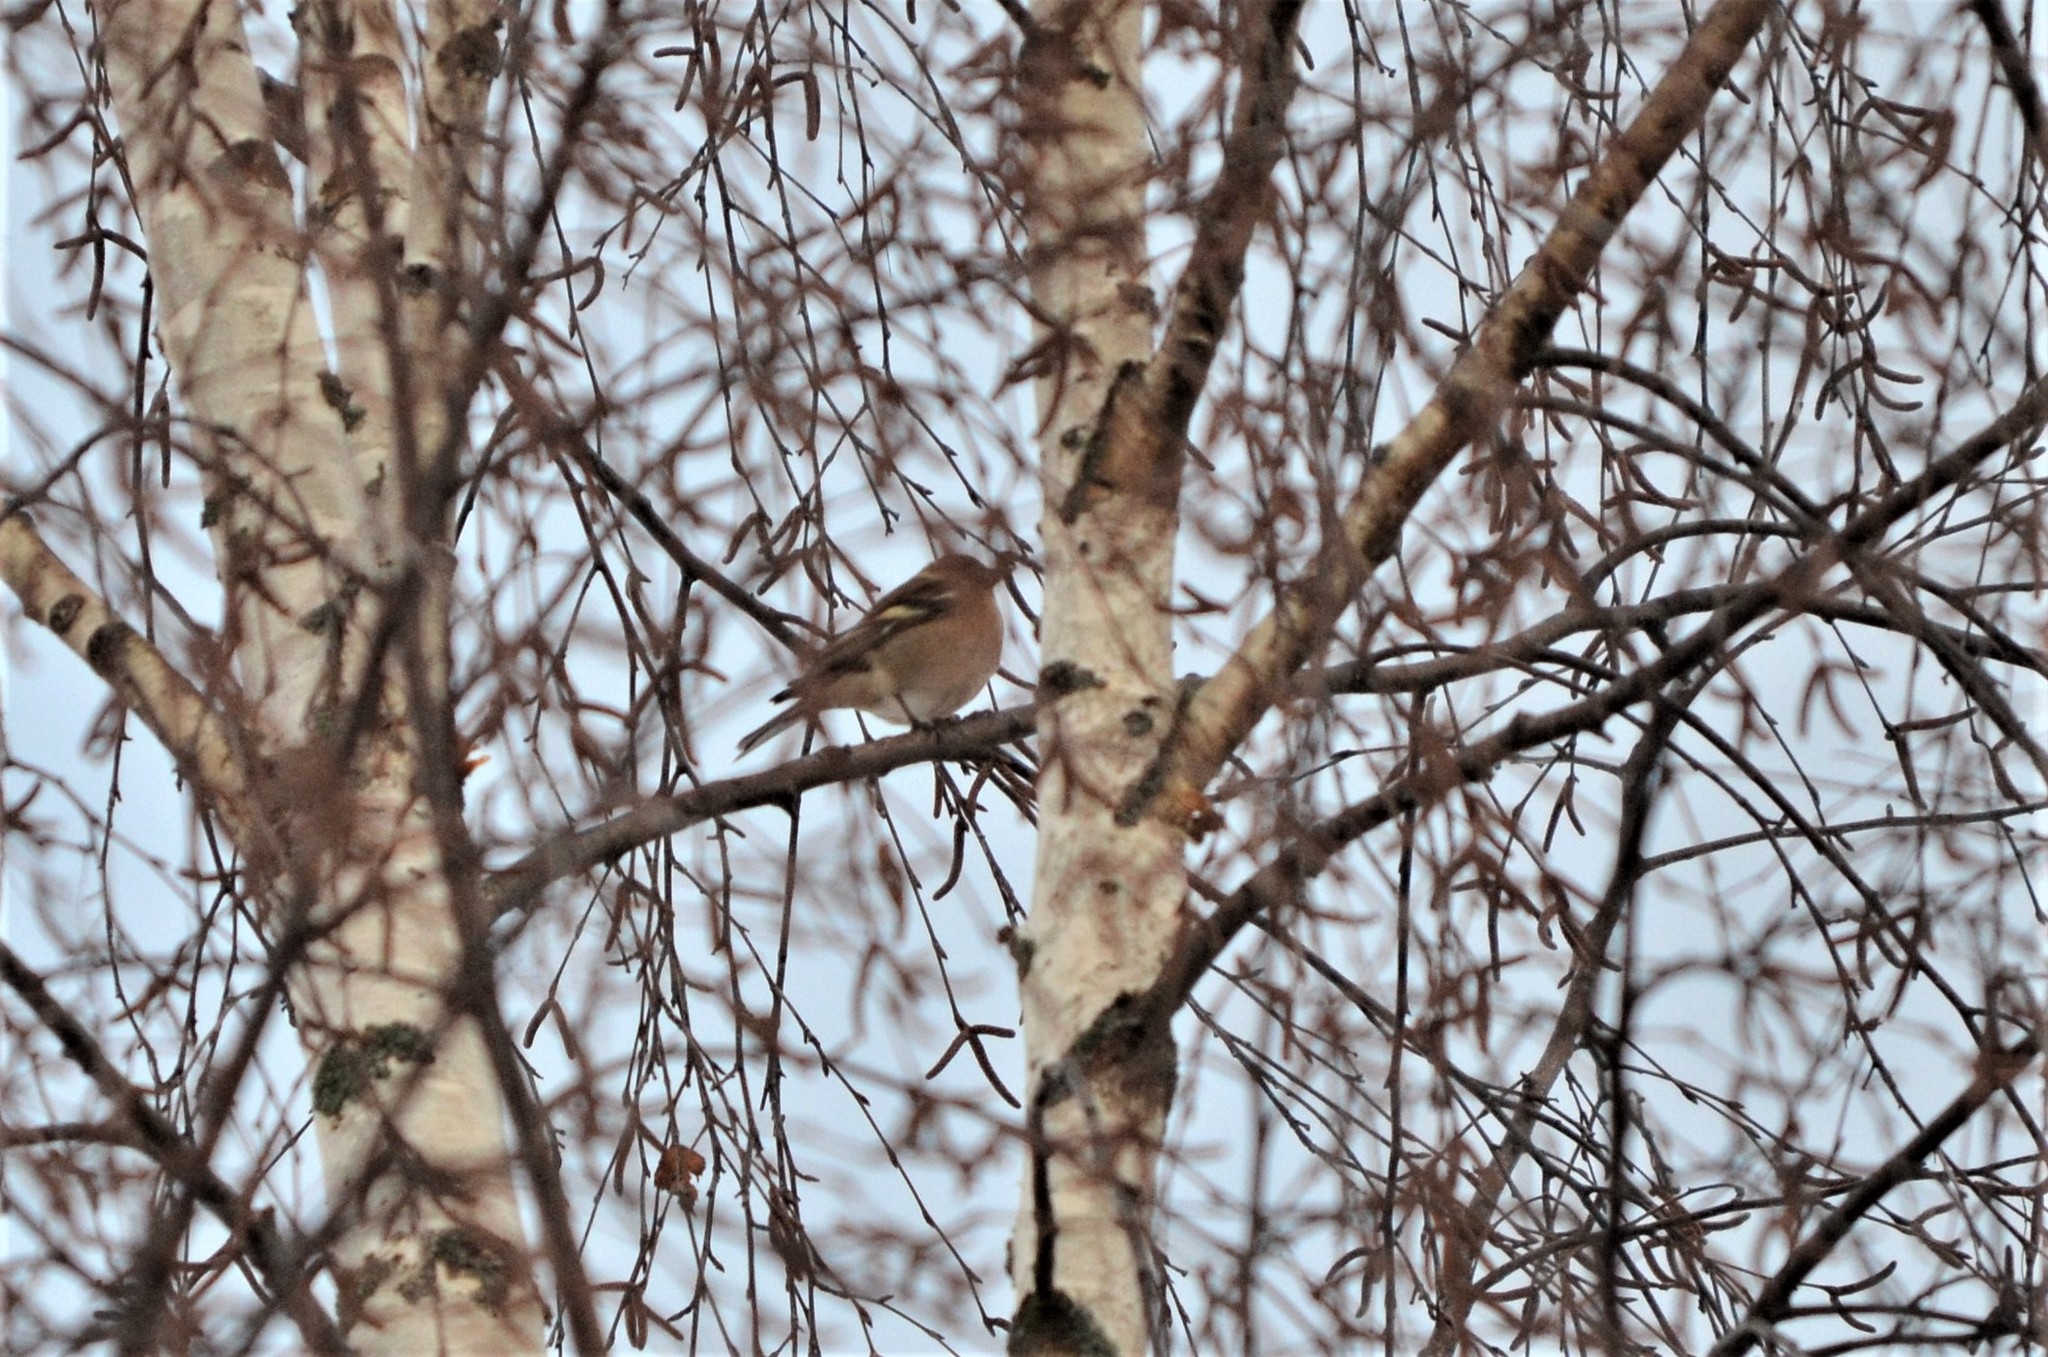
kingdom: Animalia
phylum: Chordata
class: Aves
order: Passeriformes
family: Fringillidae
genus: Fringilla
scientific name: Fringilla coelebs
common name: Common chaffinch
